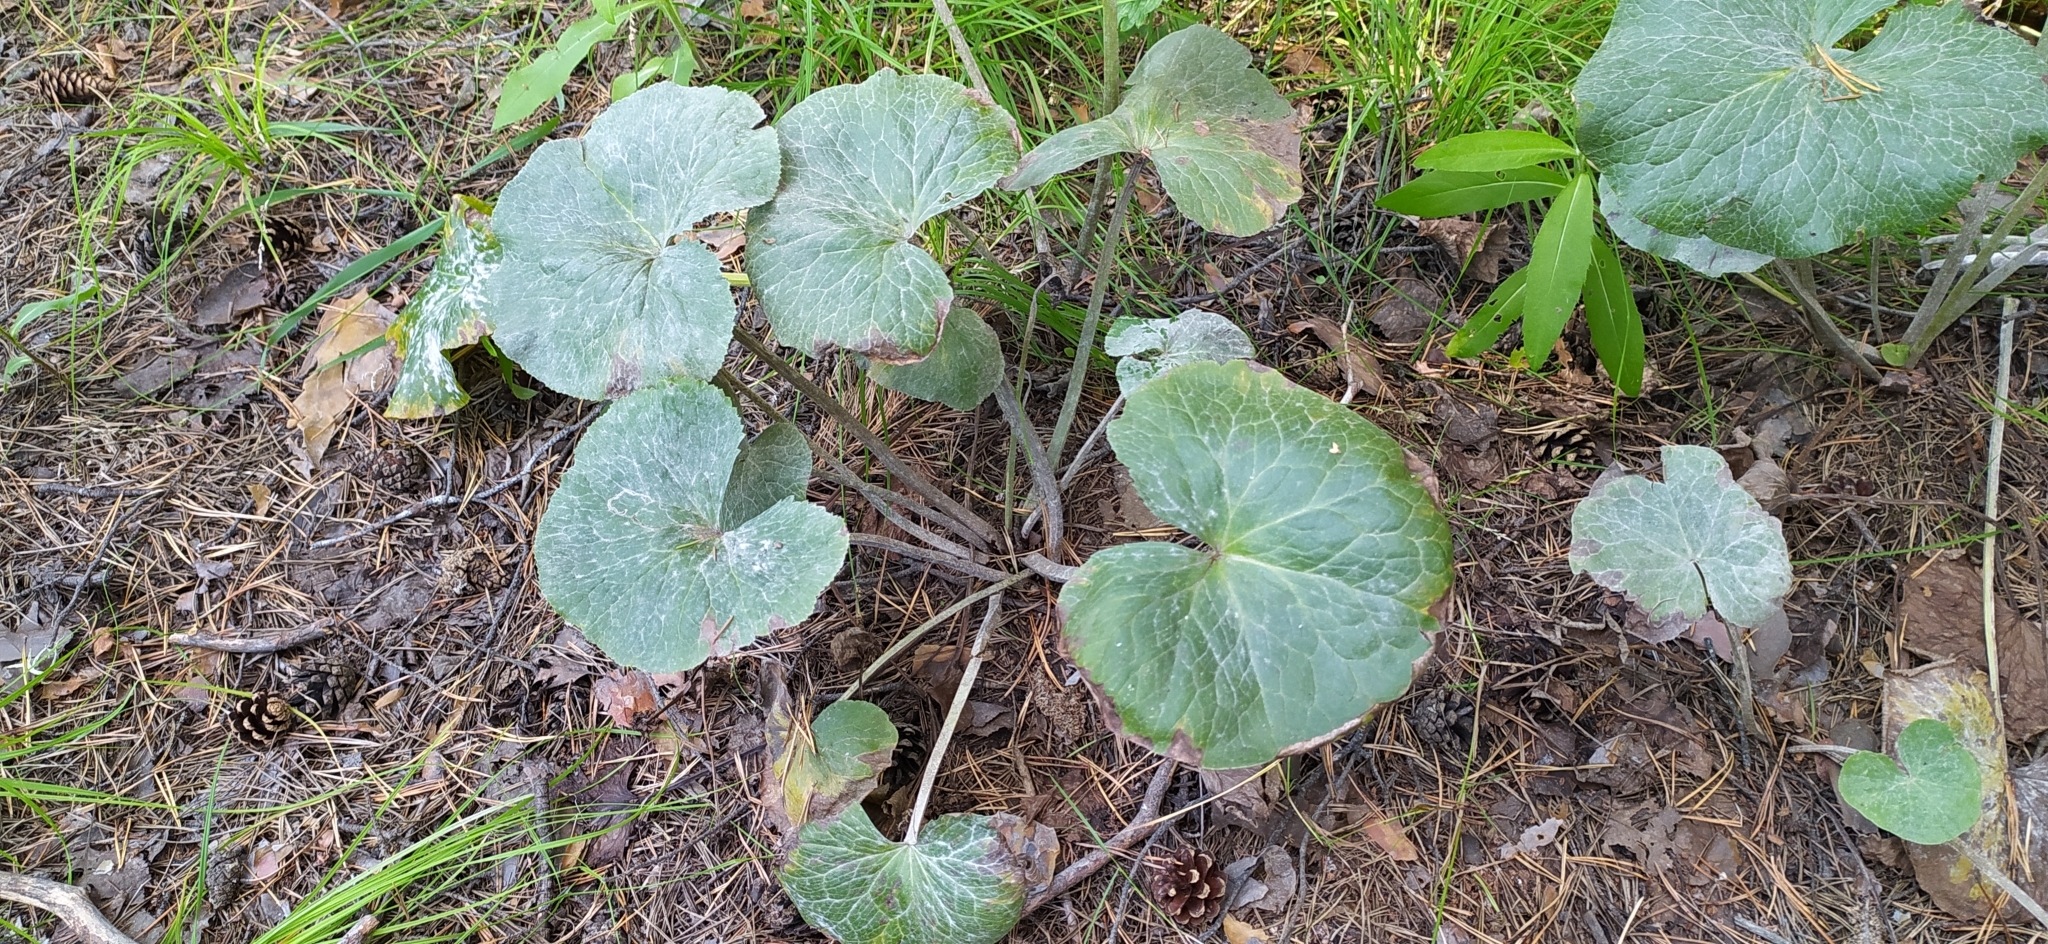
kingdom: Plantae
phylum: Tracheophyta
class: Magnoliopsida
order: Ranunculales
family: Ranunculaceae
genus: Caltha
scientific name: Caltha palustris
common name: Marsh marigold
